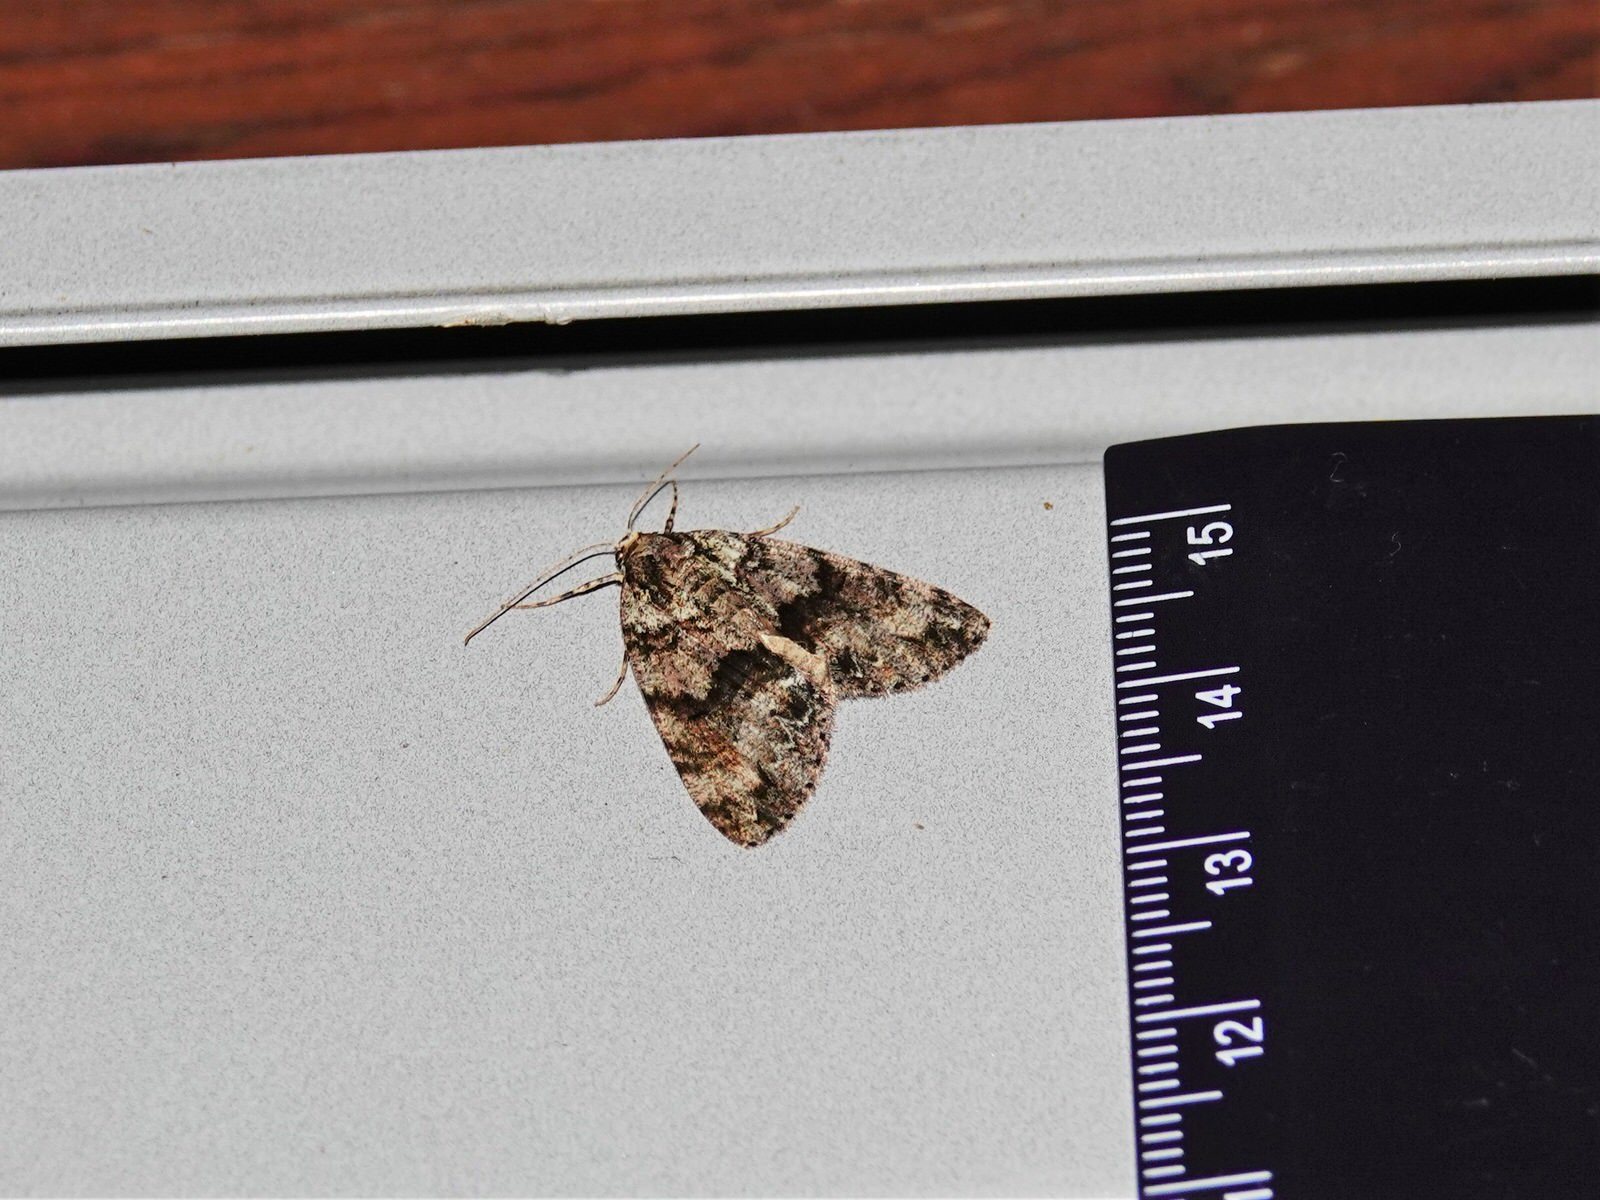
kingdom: Animalia
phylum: Arthropoda
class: Insecta
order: Lepidoptera
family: Geometridae
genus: Pseudocoremia
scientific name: Pseudocoremia suavis
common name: Common forest looper
